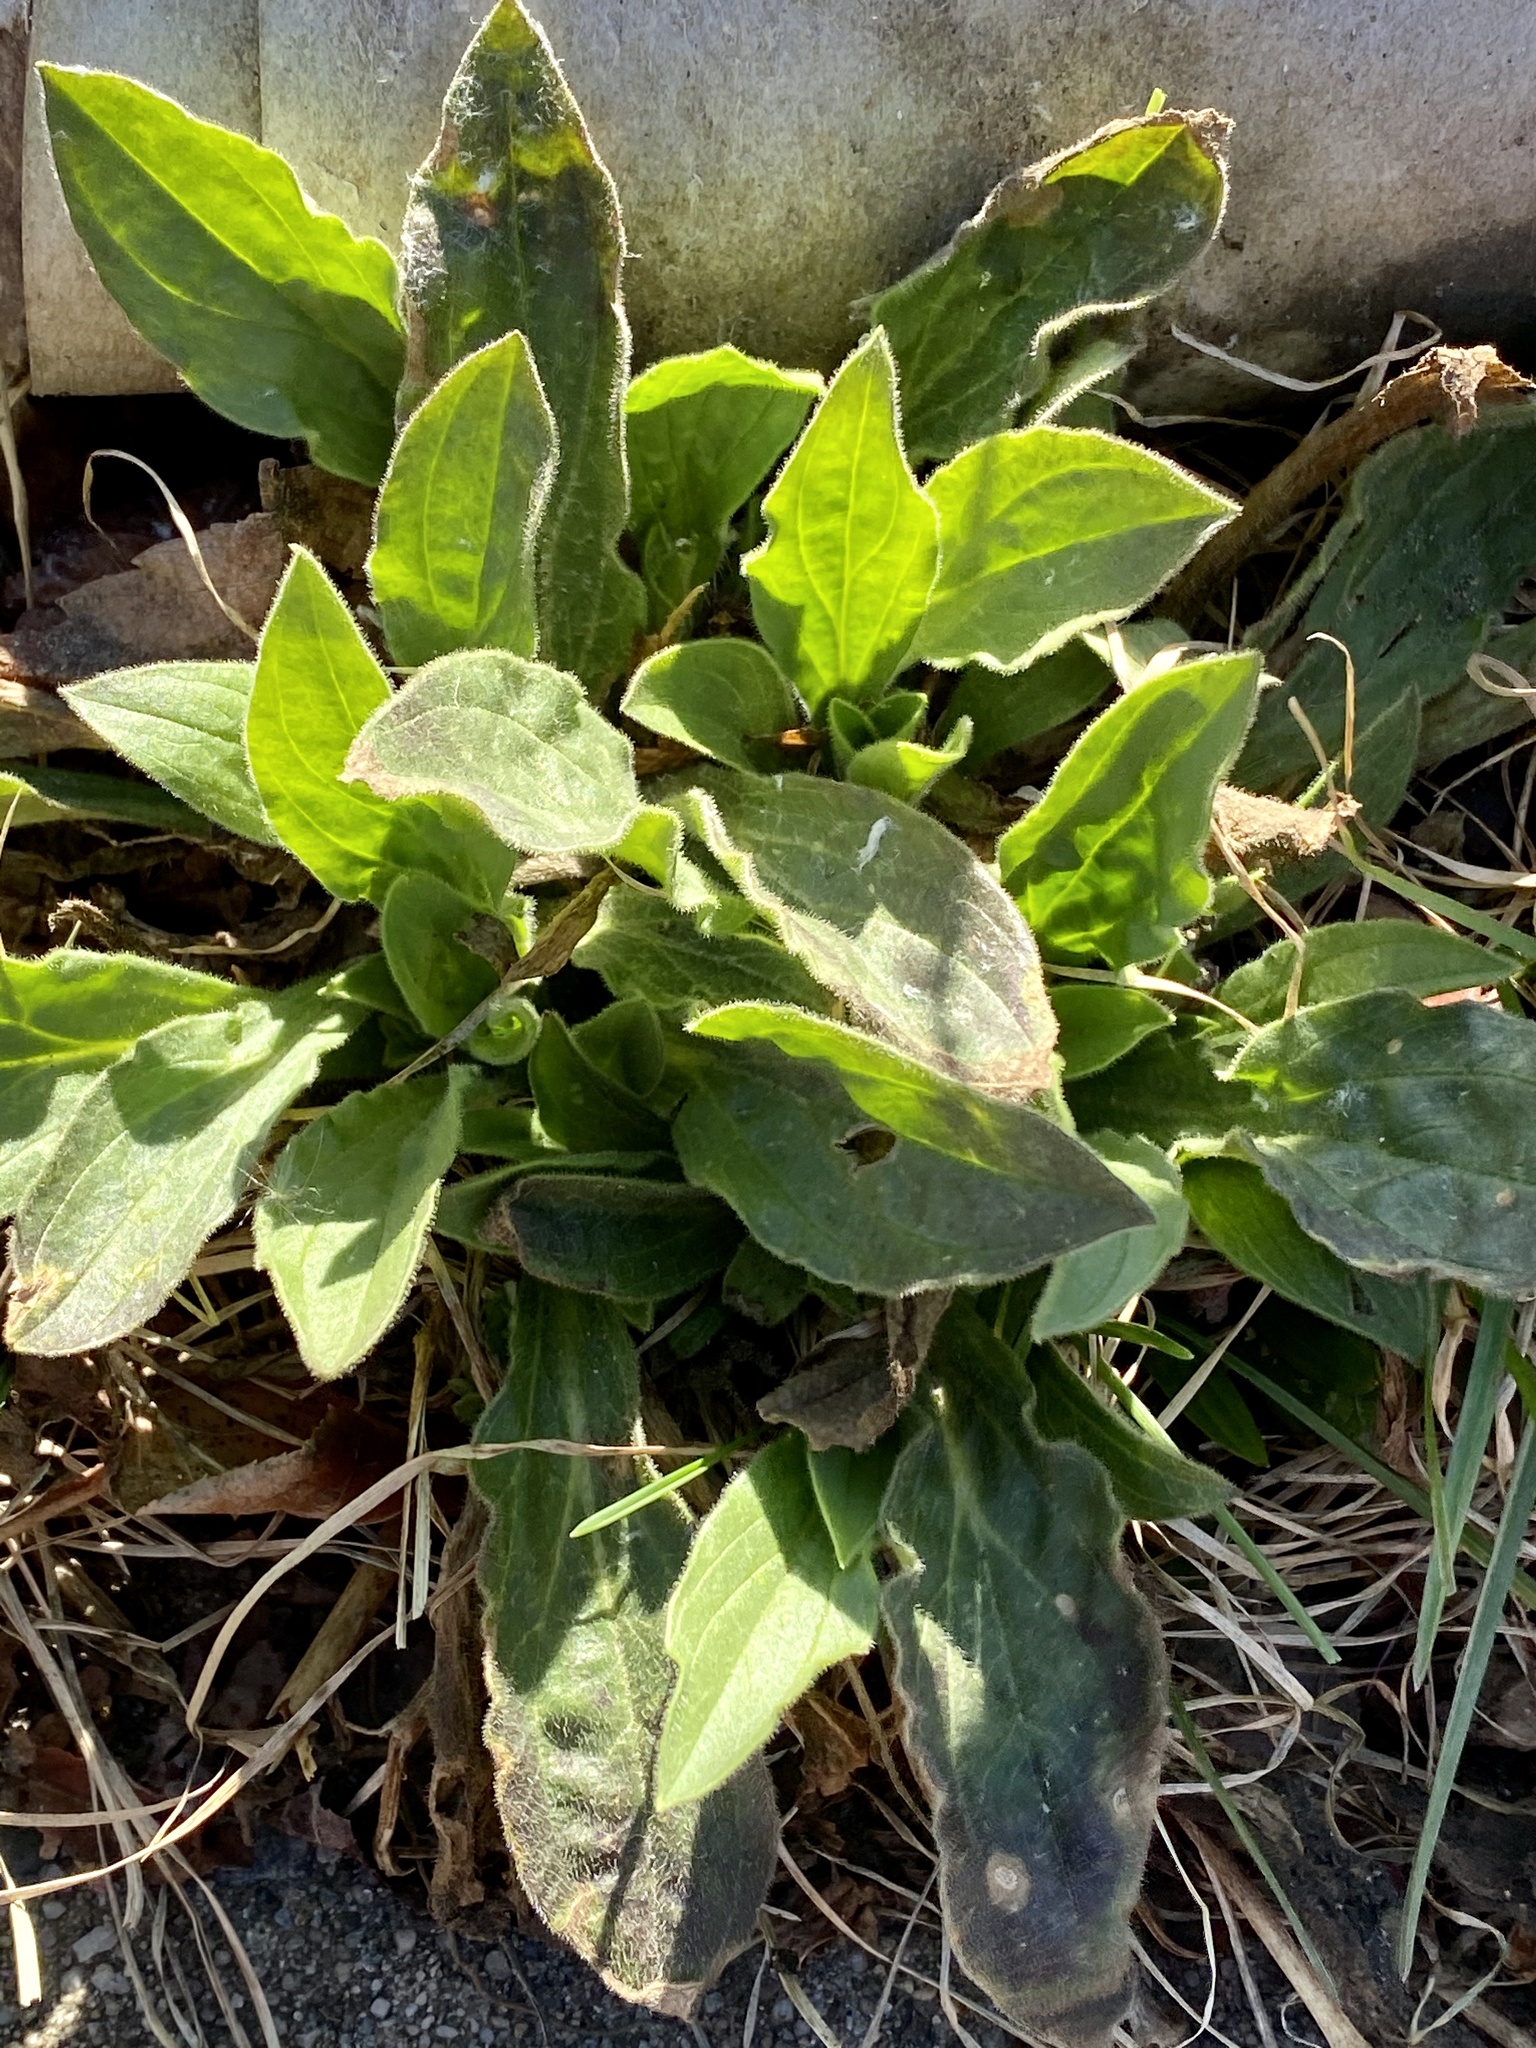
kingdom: Plantae
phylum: Tracheophyta
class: Magnoliopsida
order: Caryophyllales
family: Caryophyllaceae
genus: Silene
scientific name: Silene latifolia
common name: White campion
